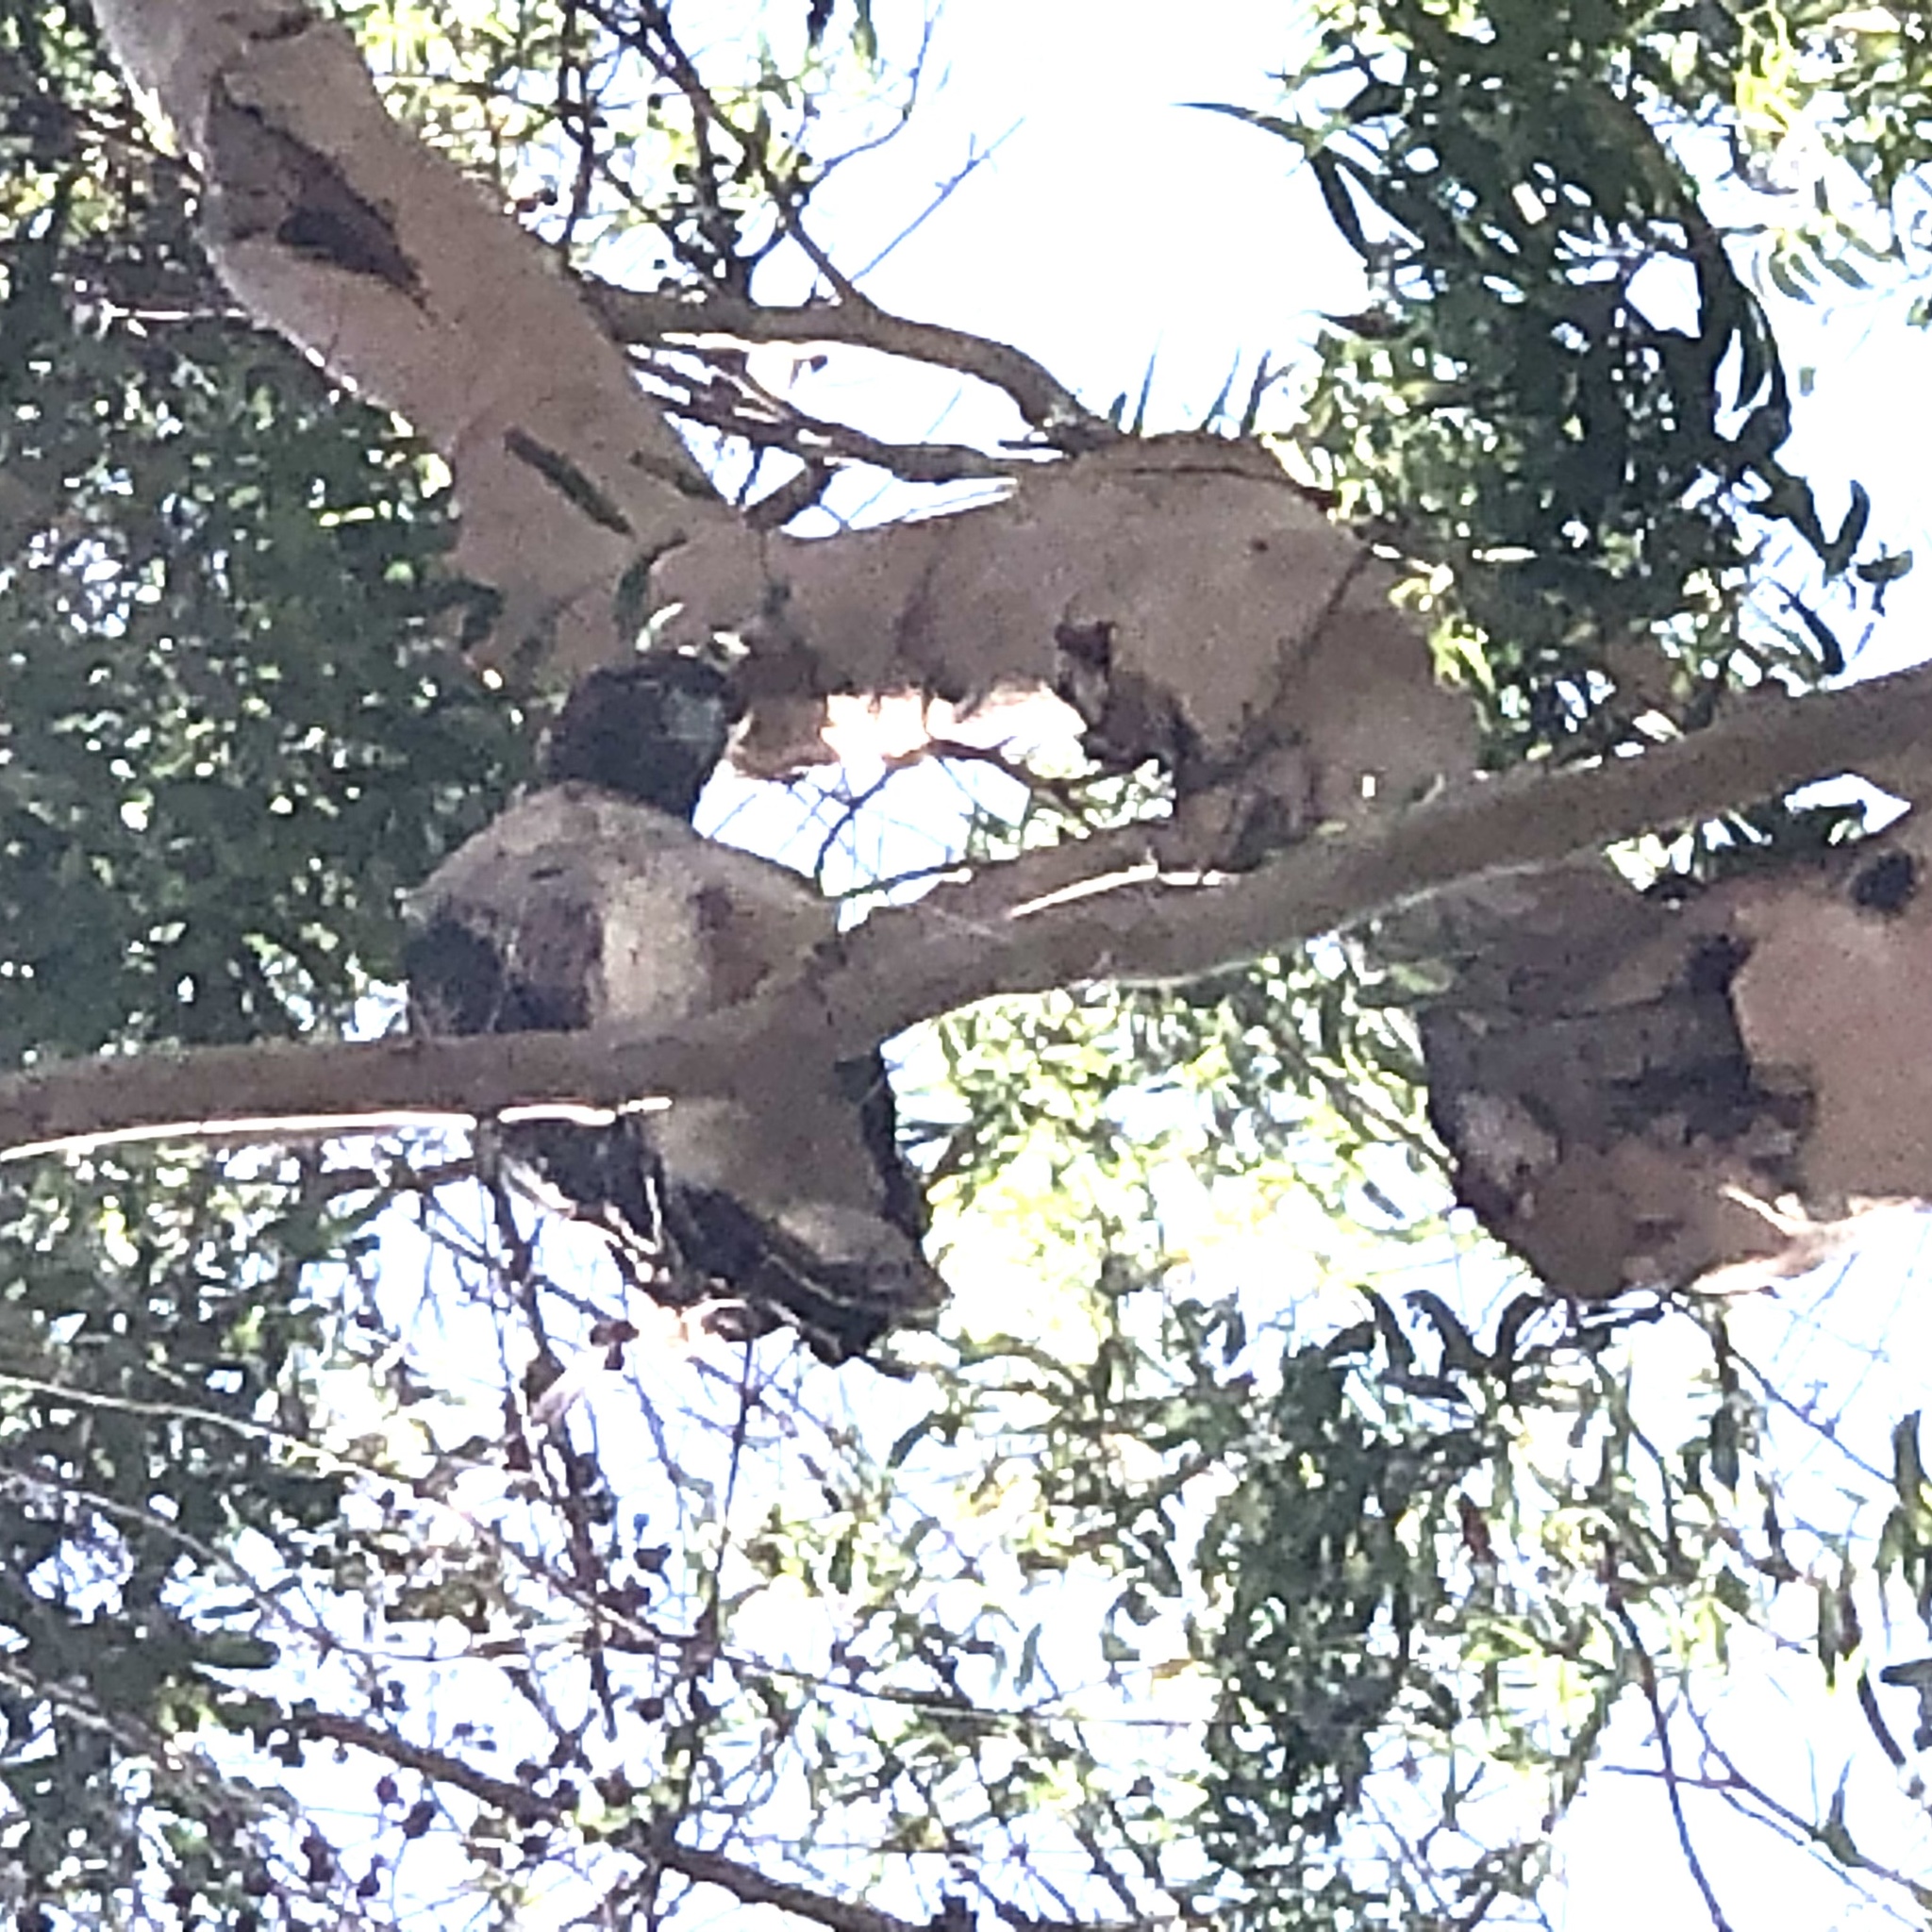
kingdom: Animalia
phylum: Chordata
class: Aves
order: Accipitriformes
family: Accipitridae
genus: Buteo
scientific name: Buteo jamaicensis
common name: Red-tailed hawk
